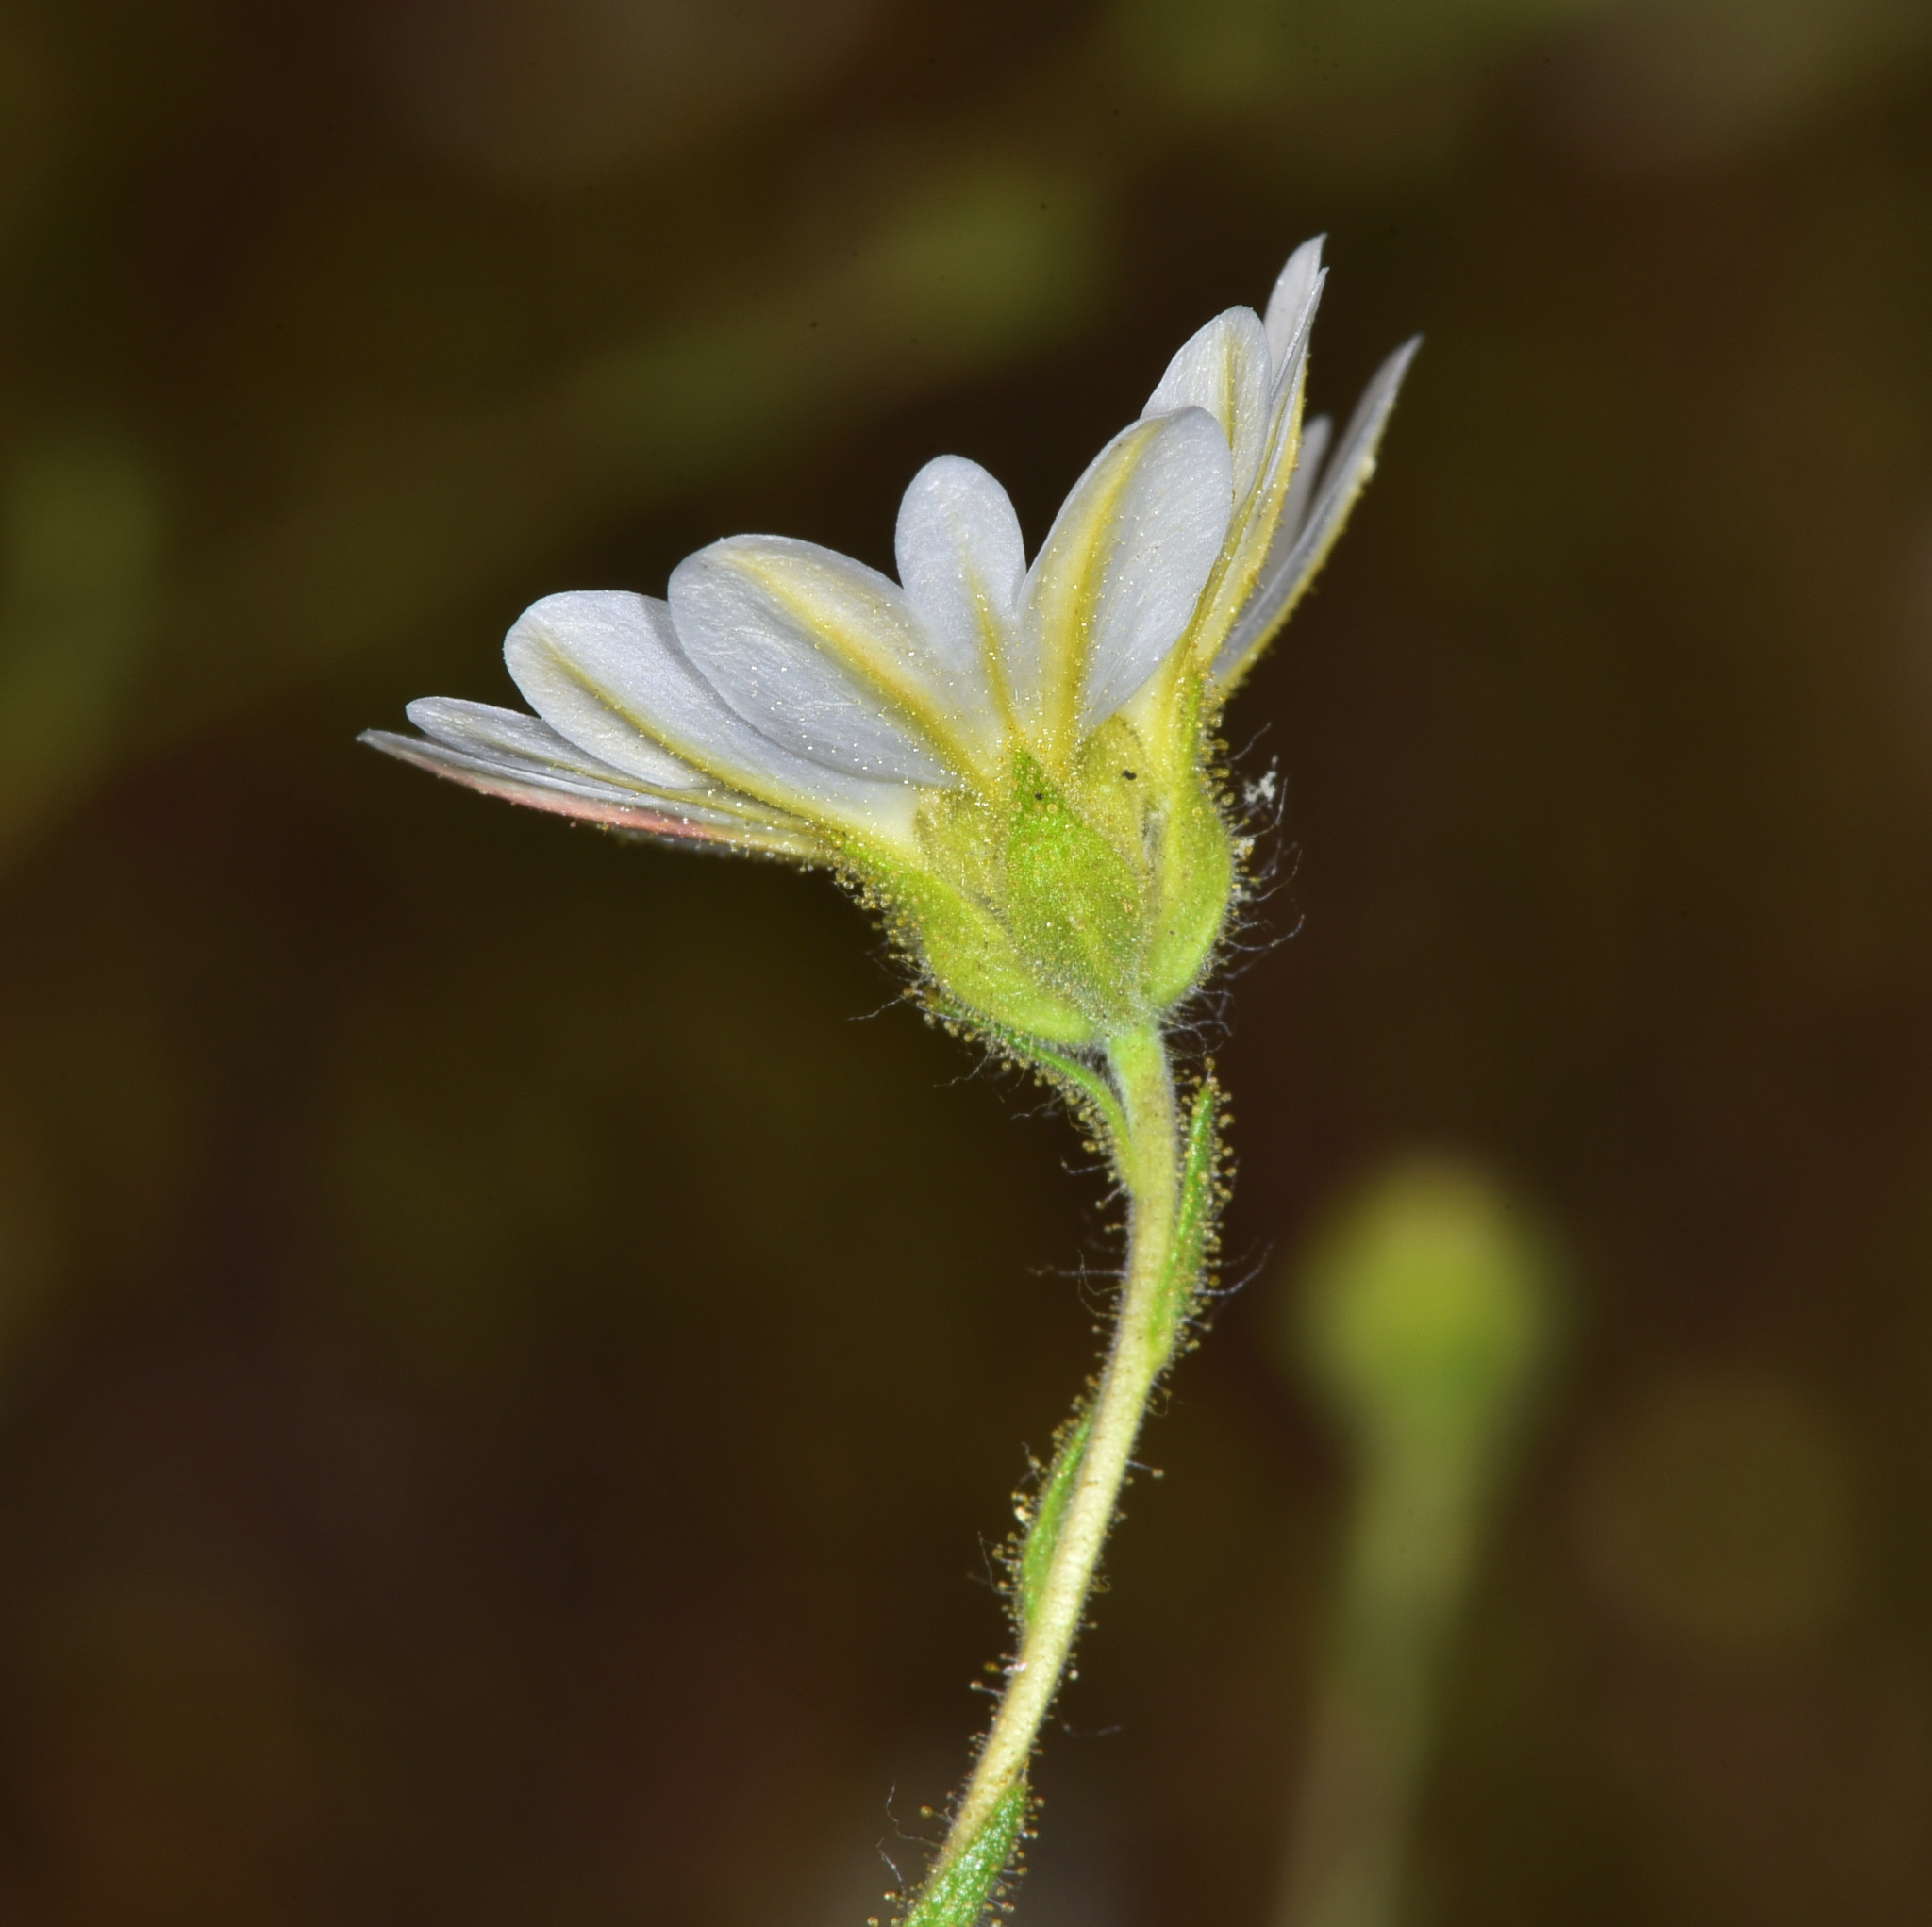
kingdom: Plantae
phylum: Tracheophyta
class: Magnoliopsida
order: Asterales
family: Asteraceae
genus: Hemizonia
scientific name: Hemizonia congesta
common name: Hayfield tarweed
